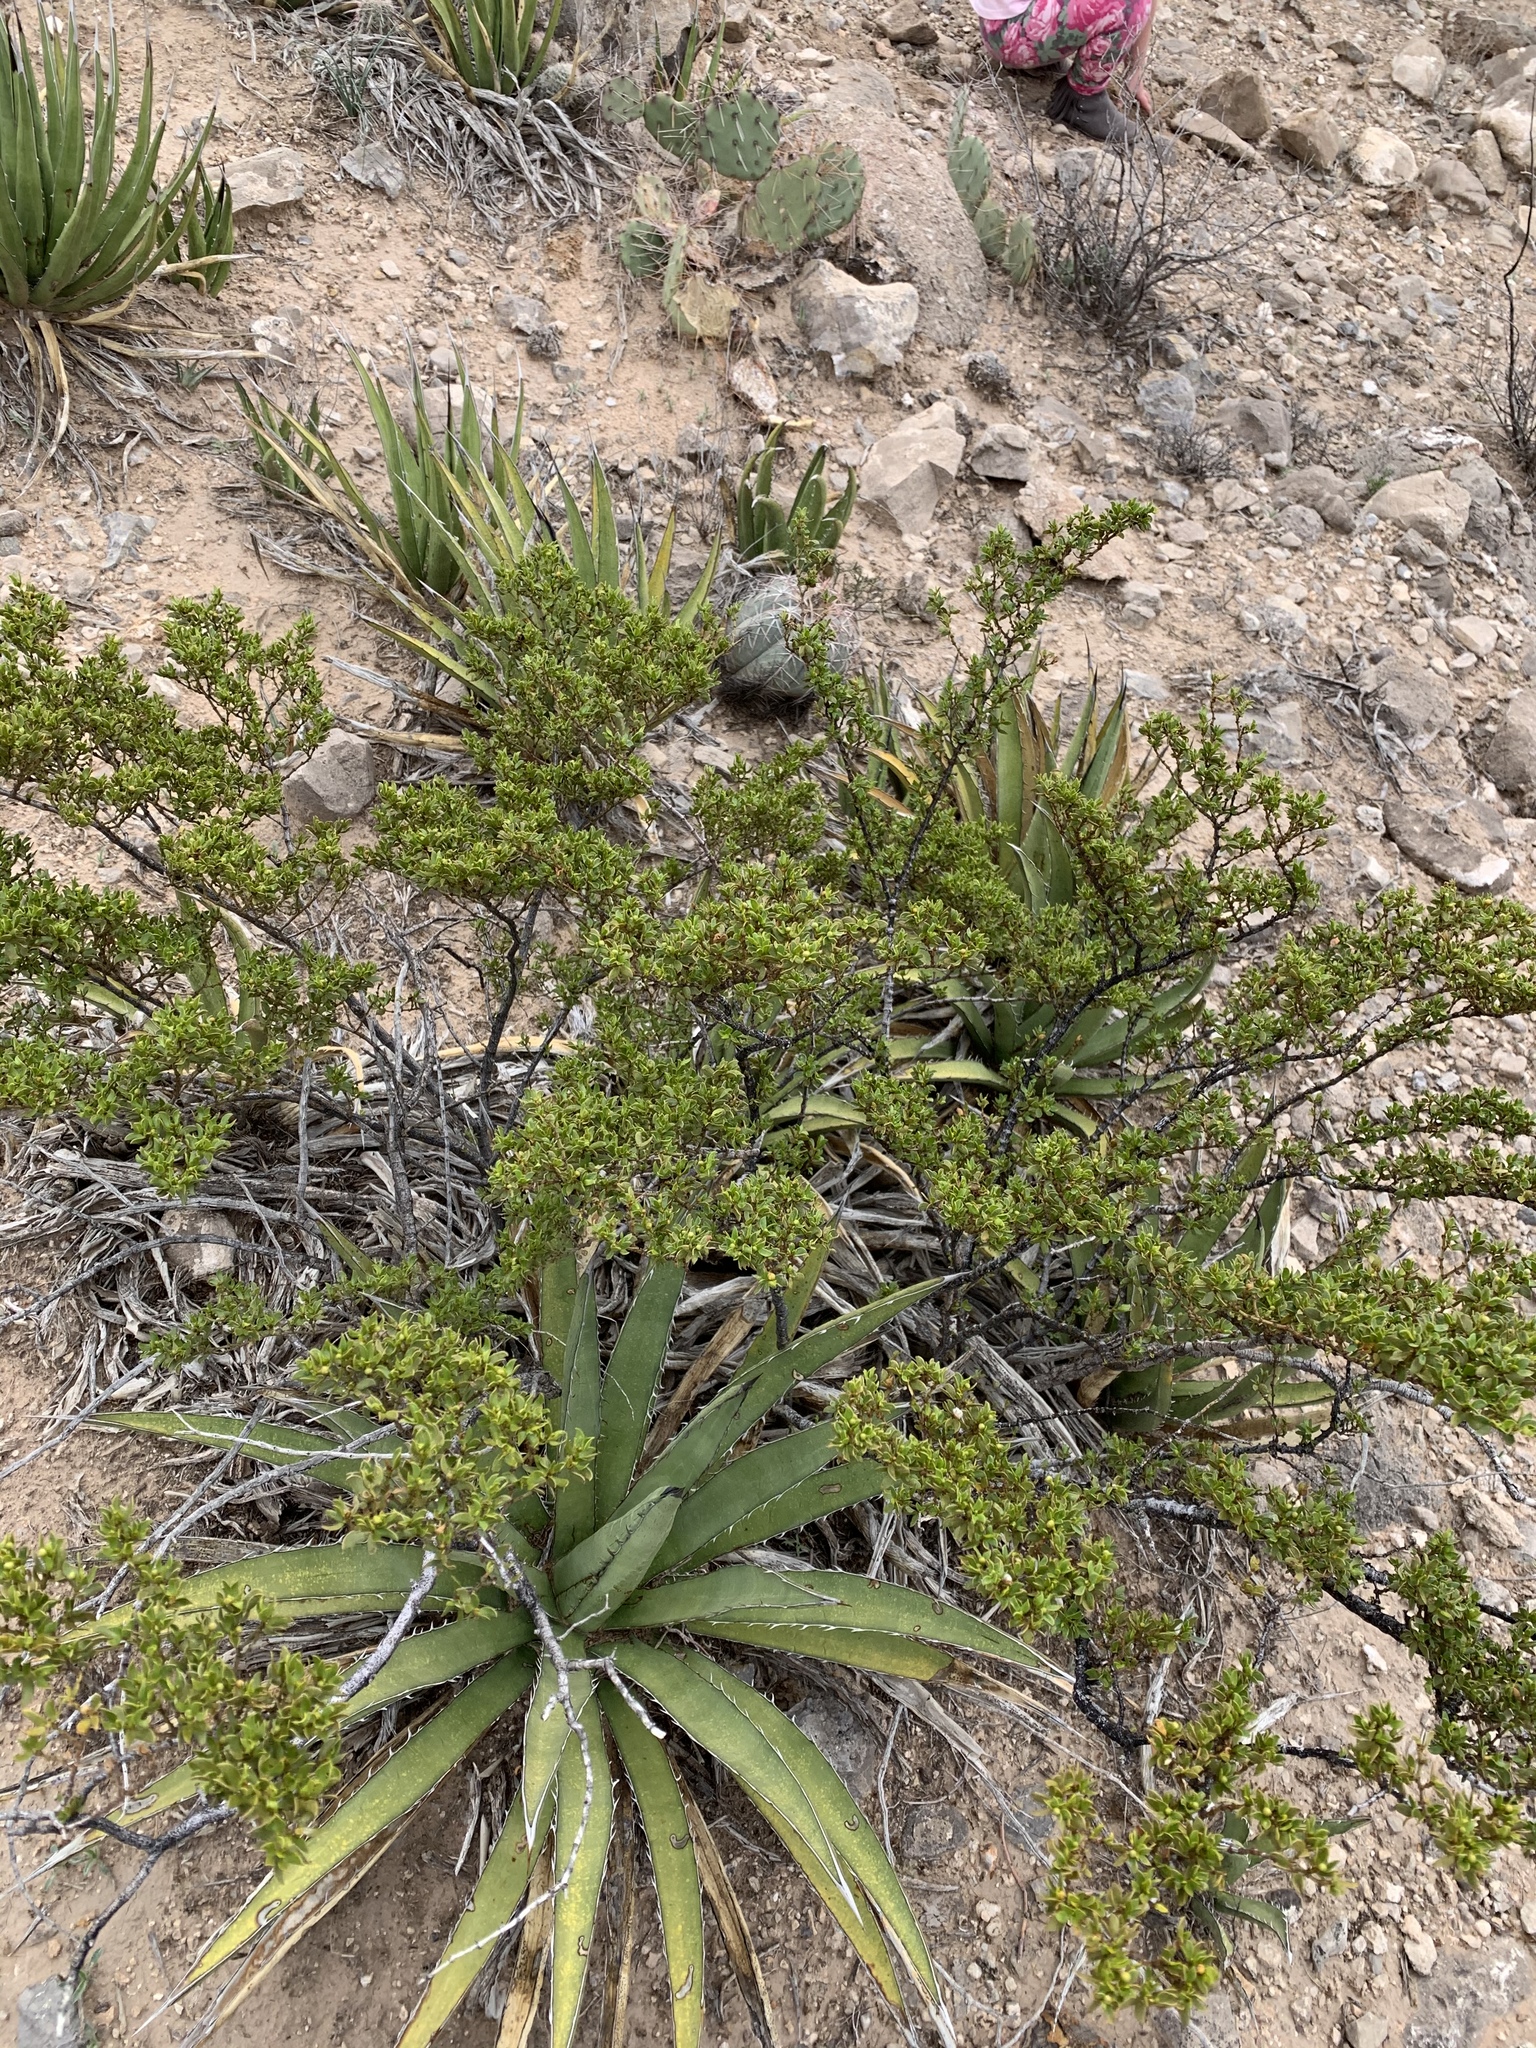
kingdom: Plantae
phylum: Tracheophyta
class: Magnoliopsida
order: Zygophyllales
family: Zygophyllaceae
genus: Larrea
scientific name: Larrea tridentata
